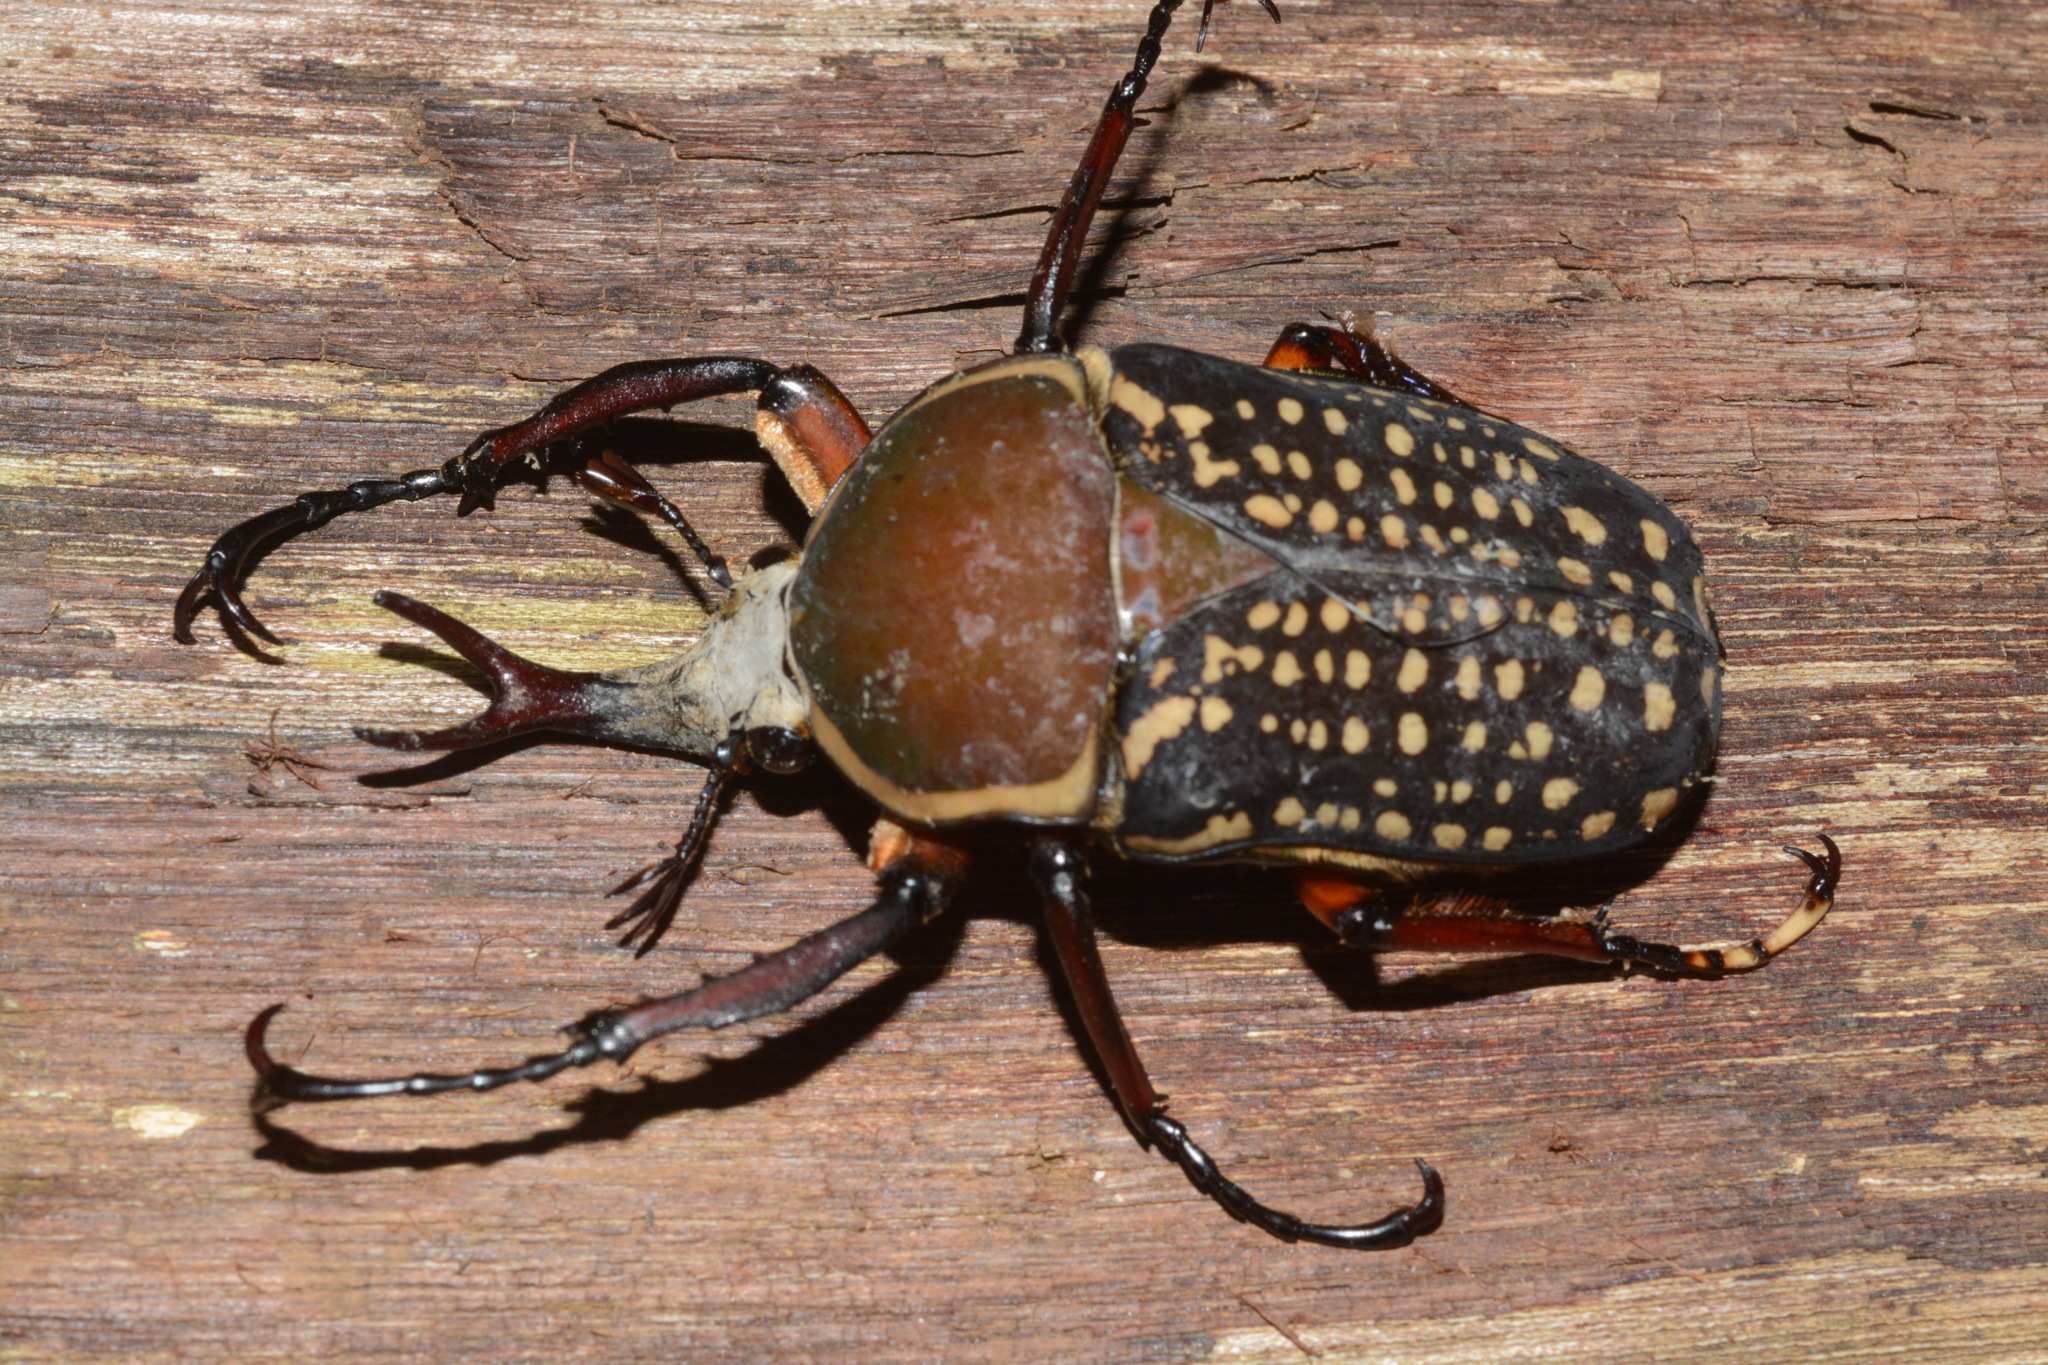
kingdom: Animalia
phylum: Arthropoda
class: Insecta
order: Coleoptera
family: Scarabaeidae
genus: Mecynorhina
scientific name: Mecynorhina harrisii
